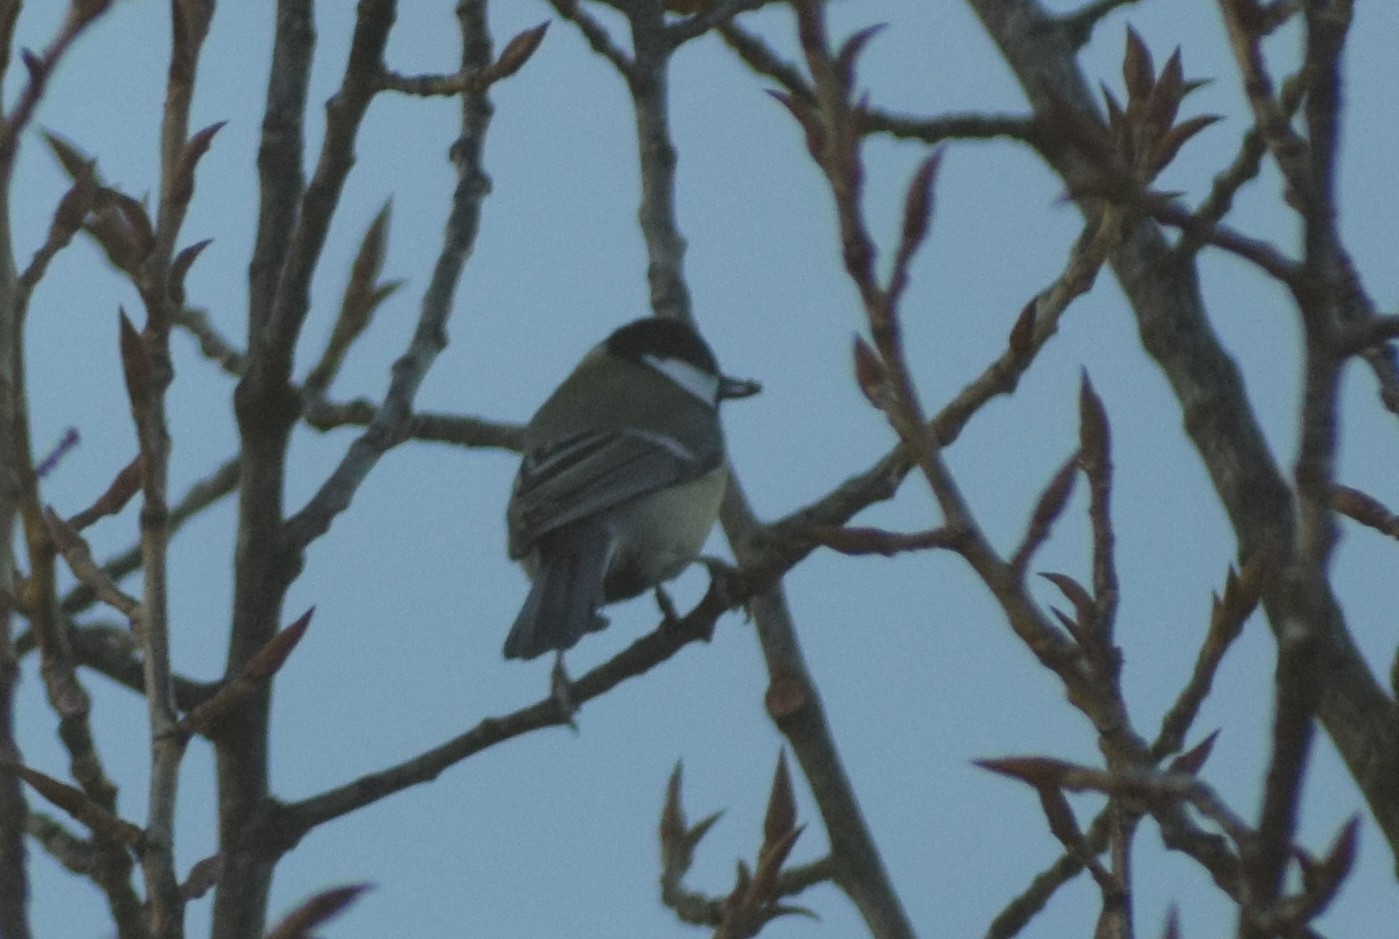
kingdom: Animalia
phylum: Chordata
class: Aves
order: Passeriformes
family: Paridae
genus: Parus
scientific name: Parus major
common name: Great tit
